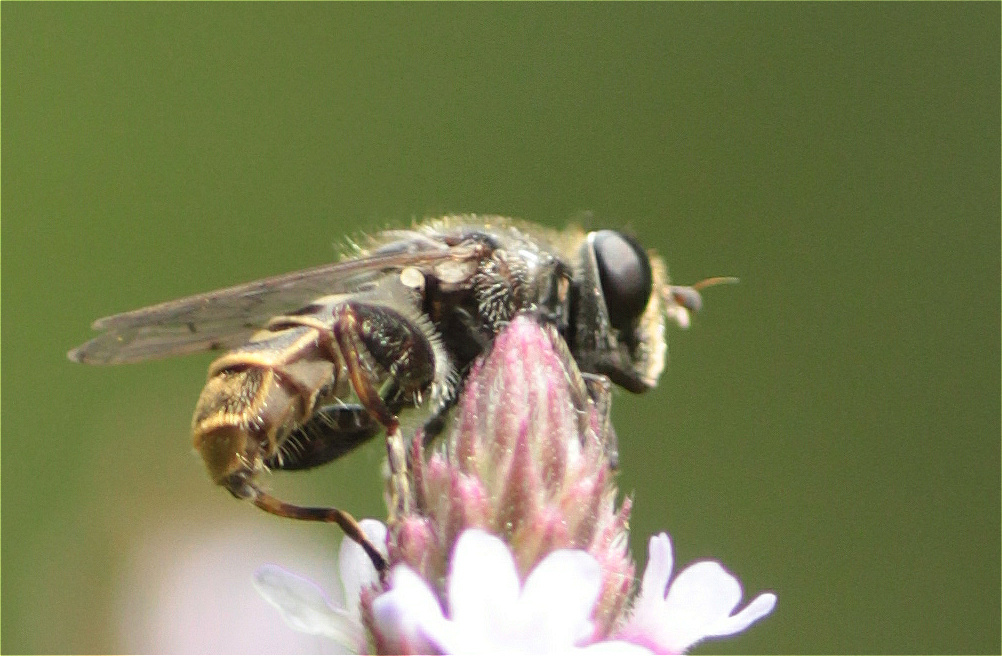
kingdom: Animalia
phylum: Arthropoda
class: Insecta
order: Diptera
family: Syrphidae
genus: Asemosyrphus
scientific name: Asemosyrphus
